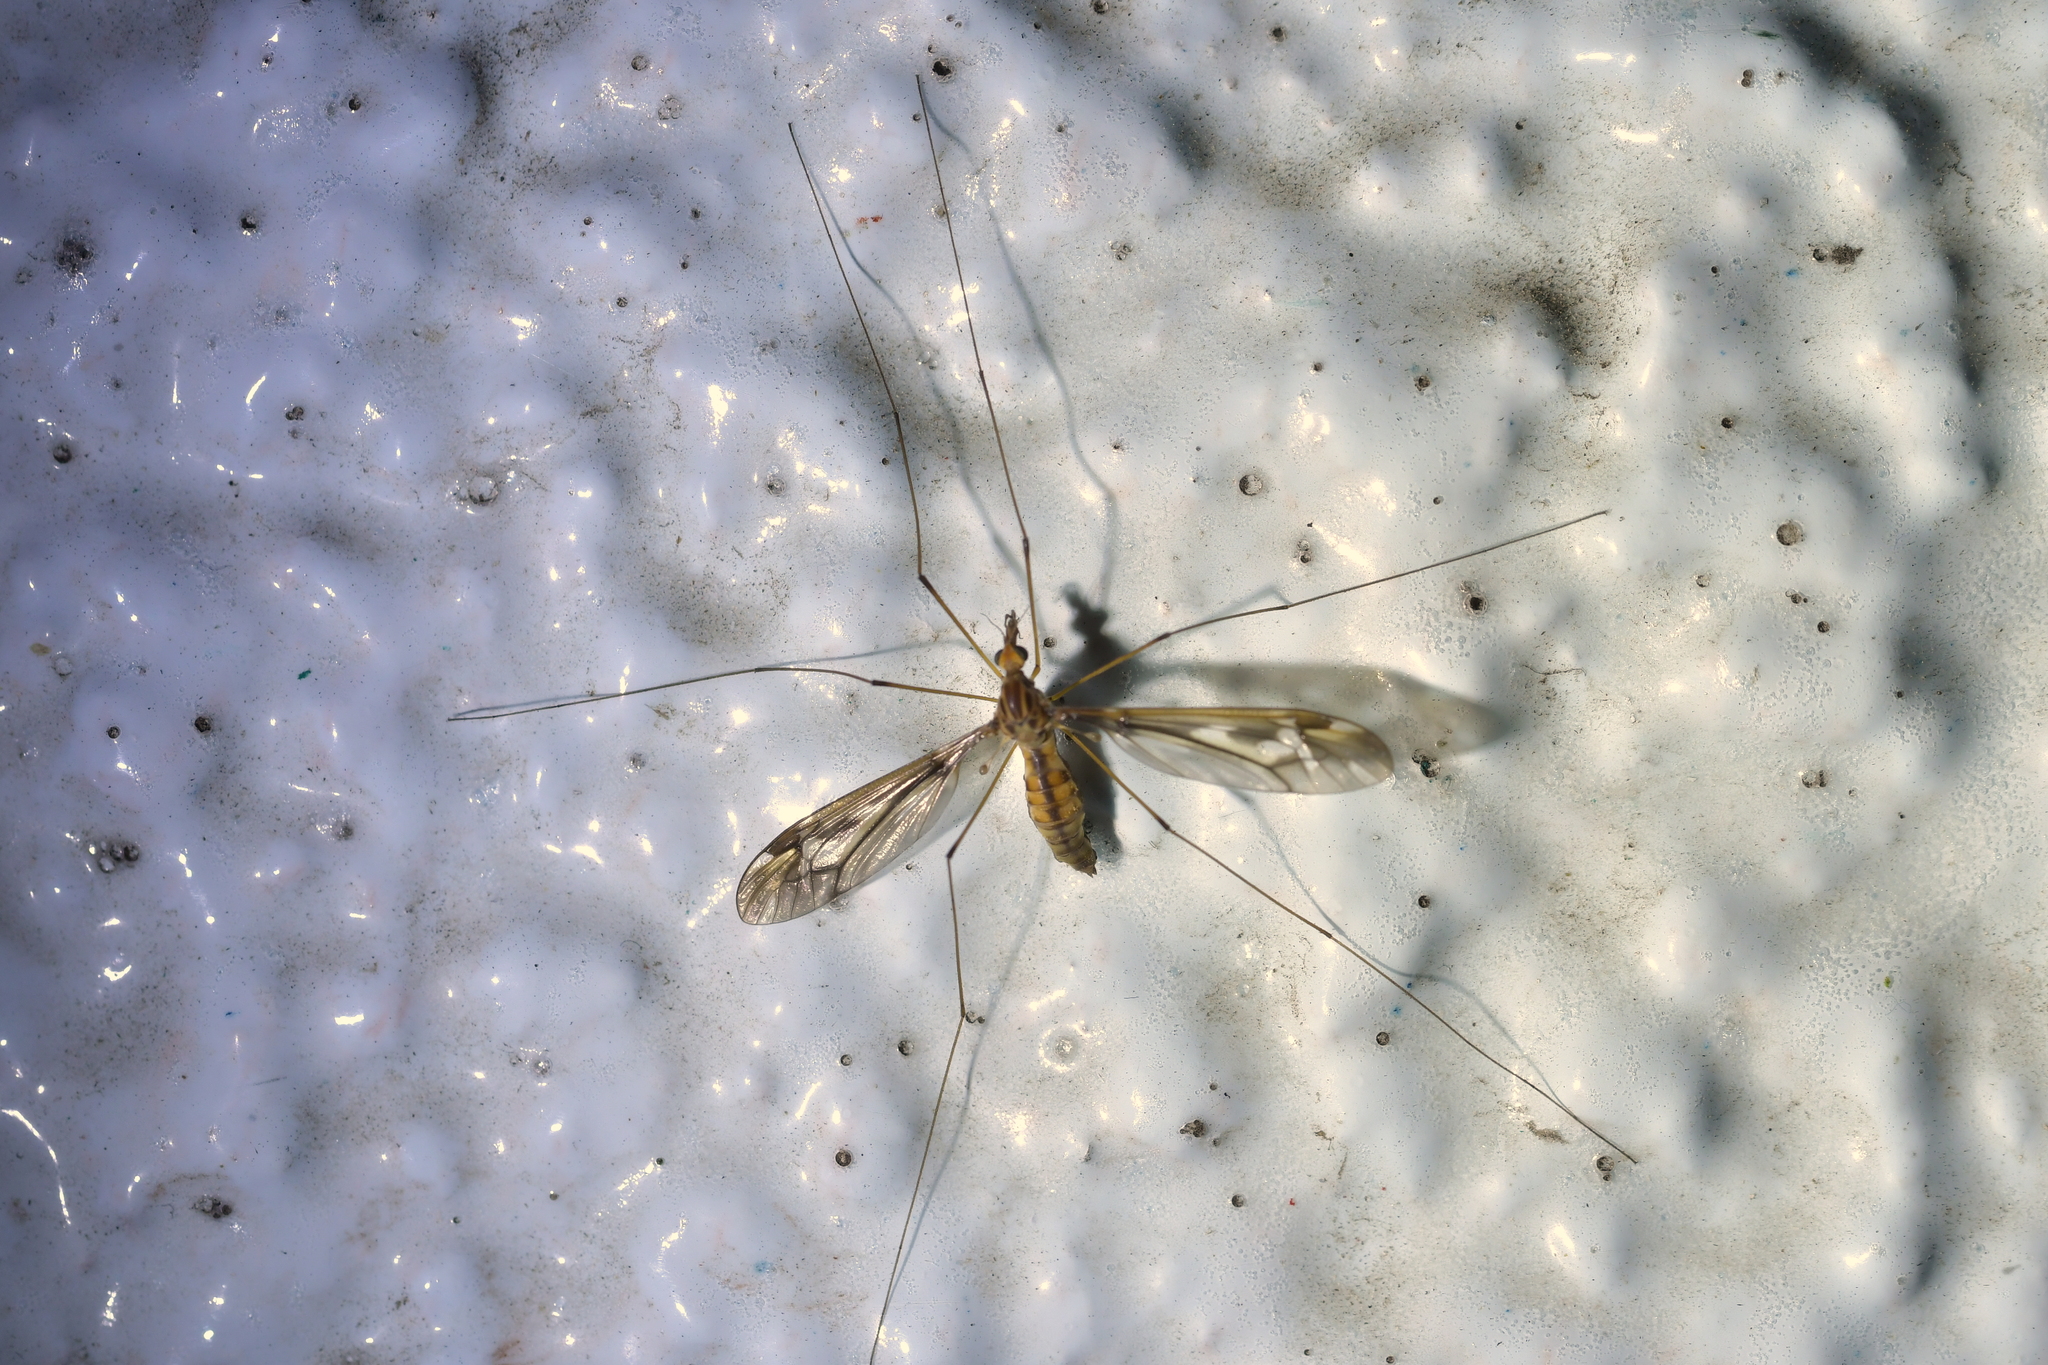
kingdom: Animalia
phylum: Arthropoda
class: Insecta
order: Diptera
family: Tipulidae
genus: Leptotarsus
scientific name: Leptotarsus huttoni
